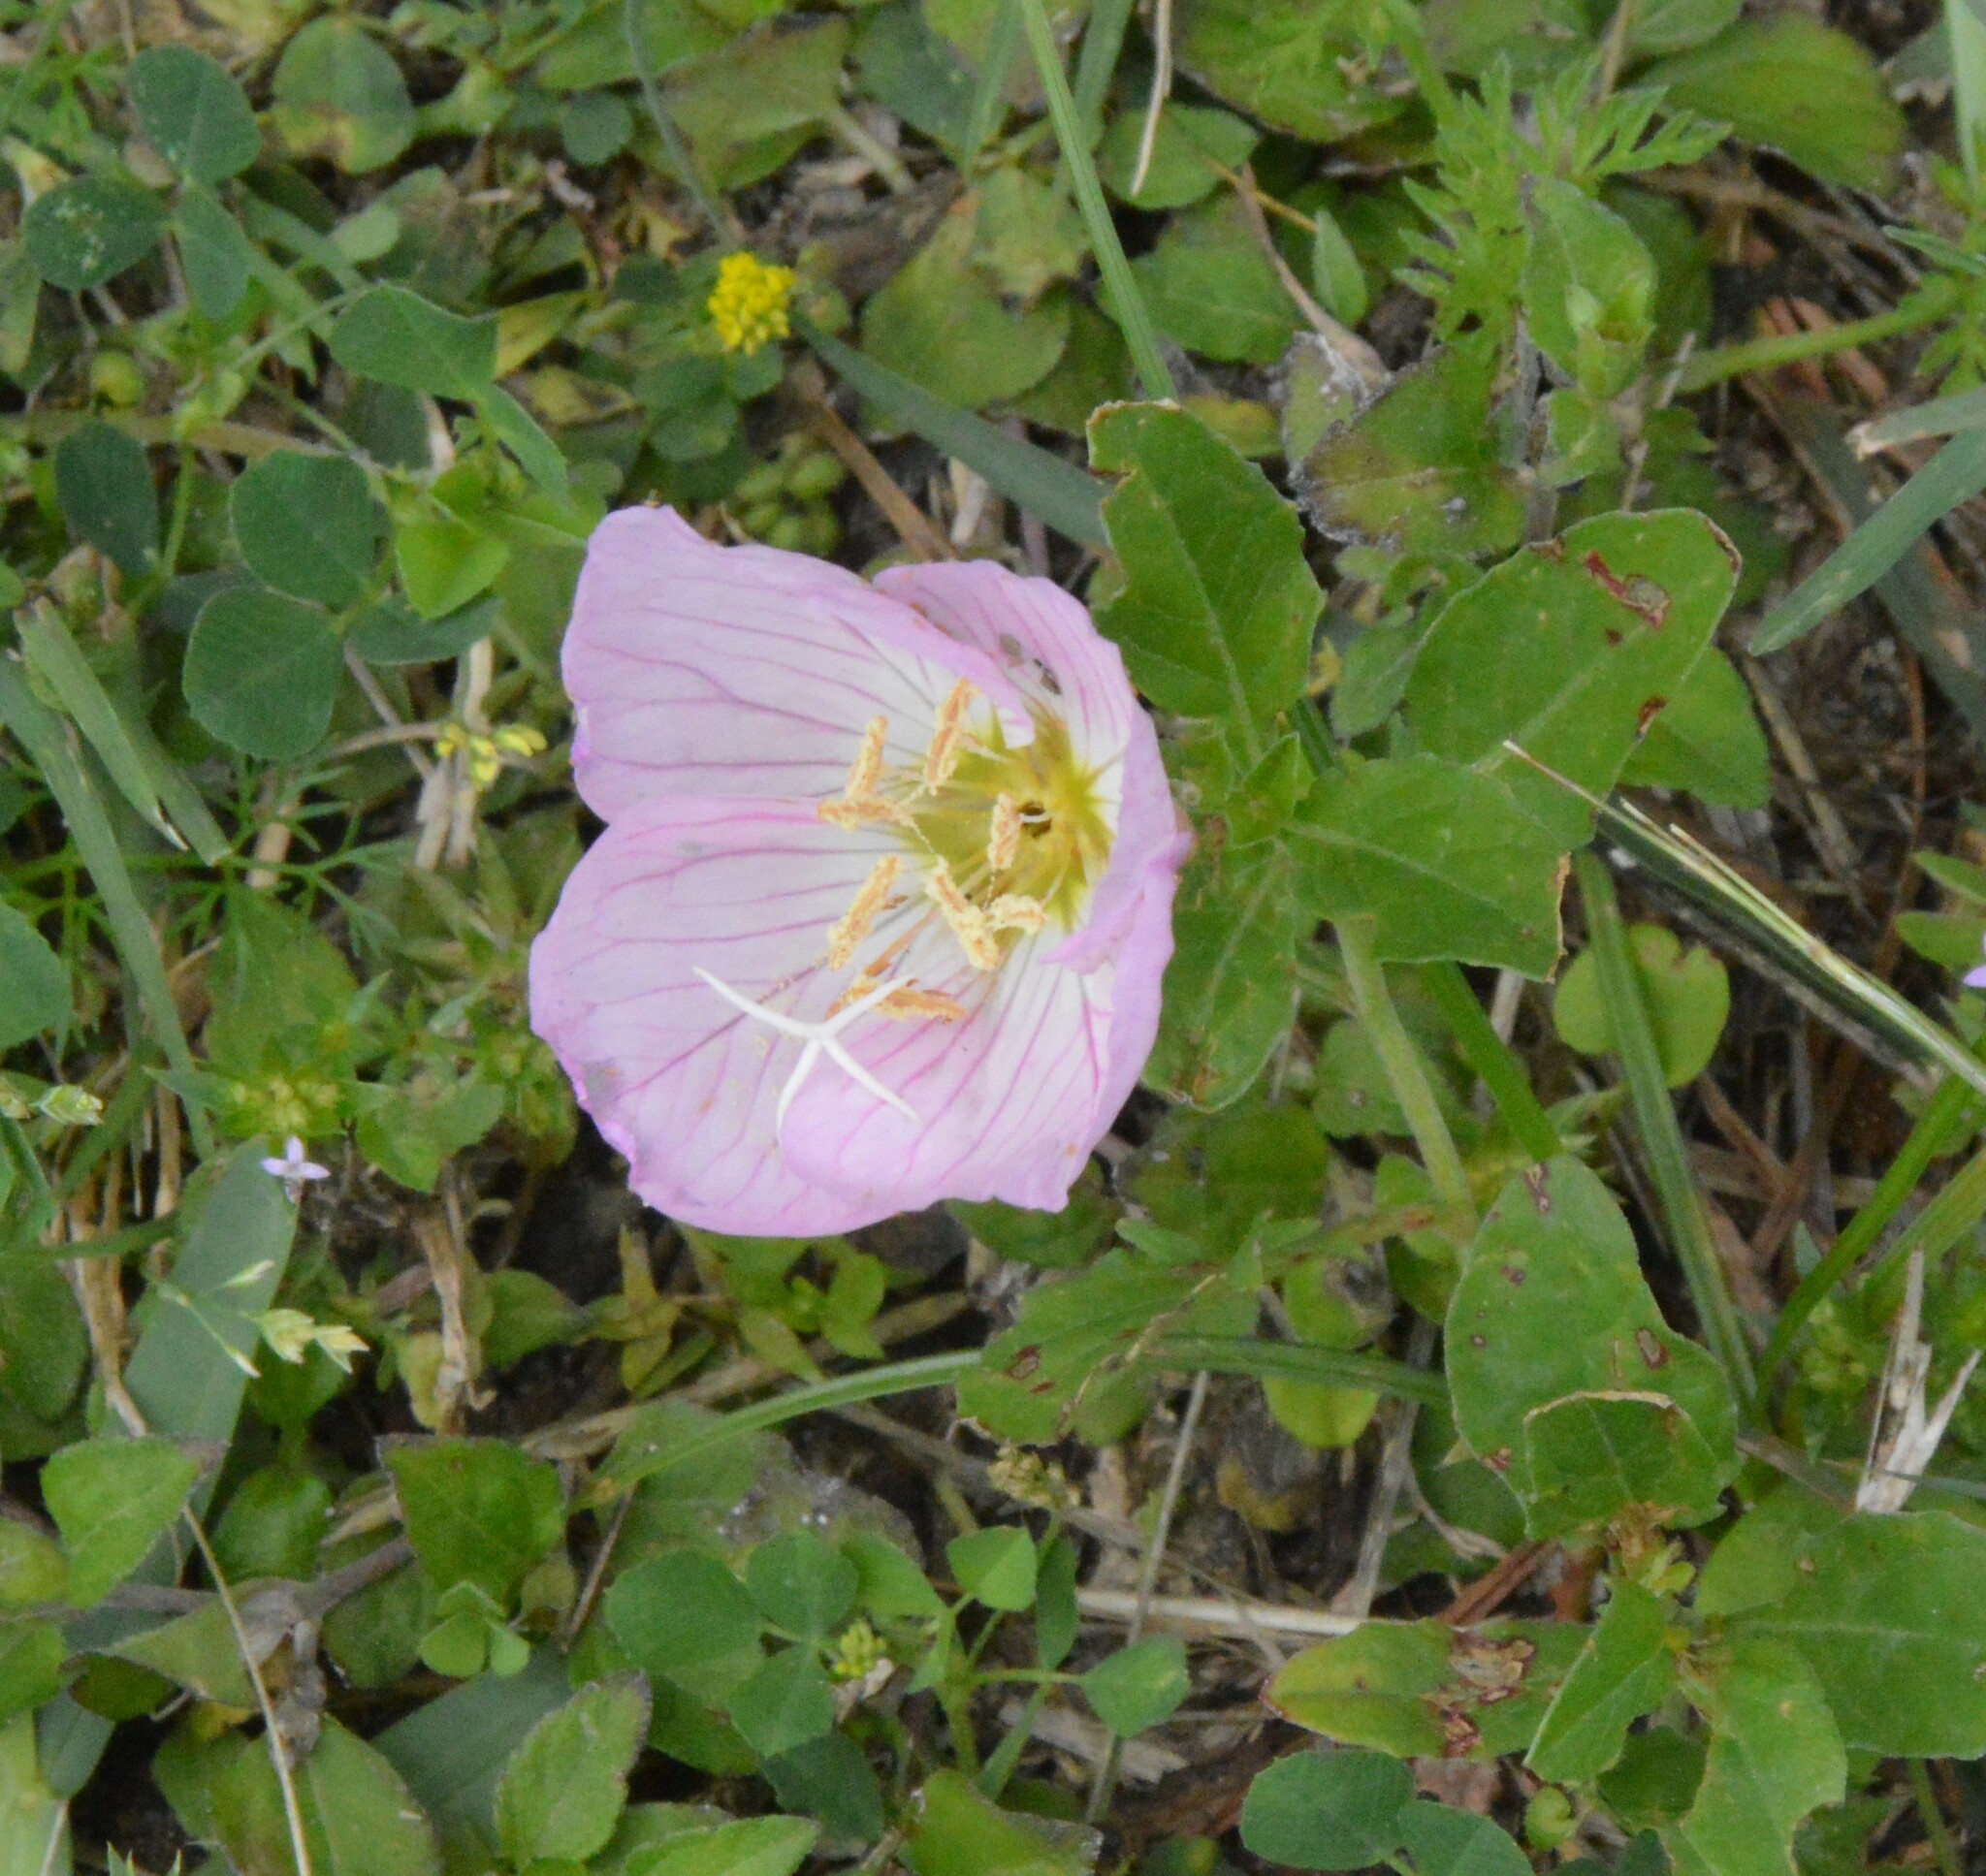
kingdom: Plantae
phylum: Tracheophyta
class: Magnoliopsida
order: Myrtales
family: Onagraceae
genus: Oenothera
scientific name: Oenothera speciosa
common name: White evening-primrose
